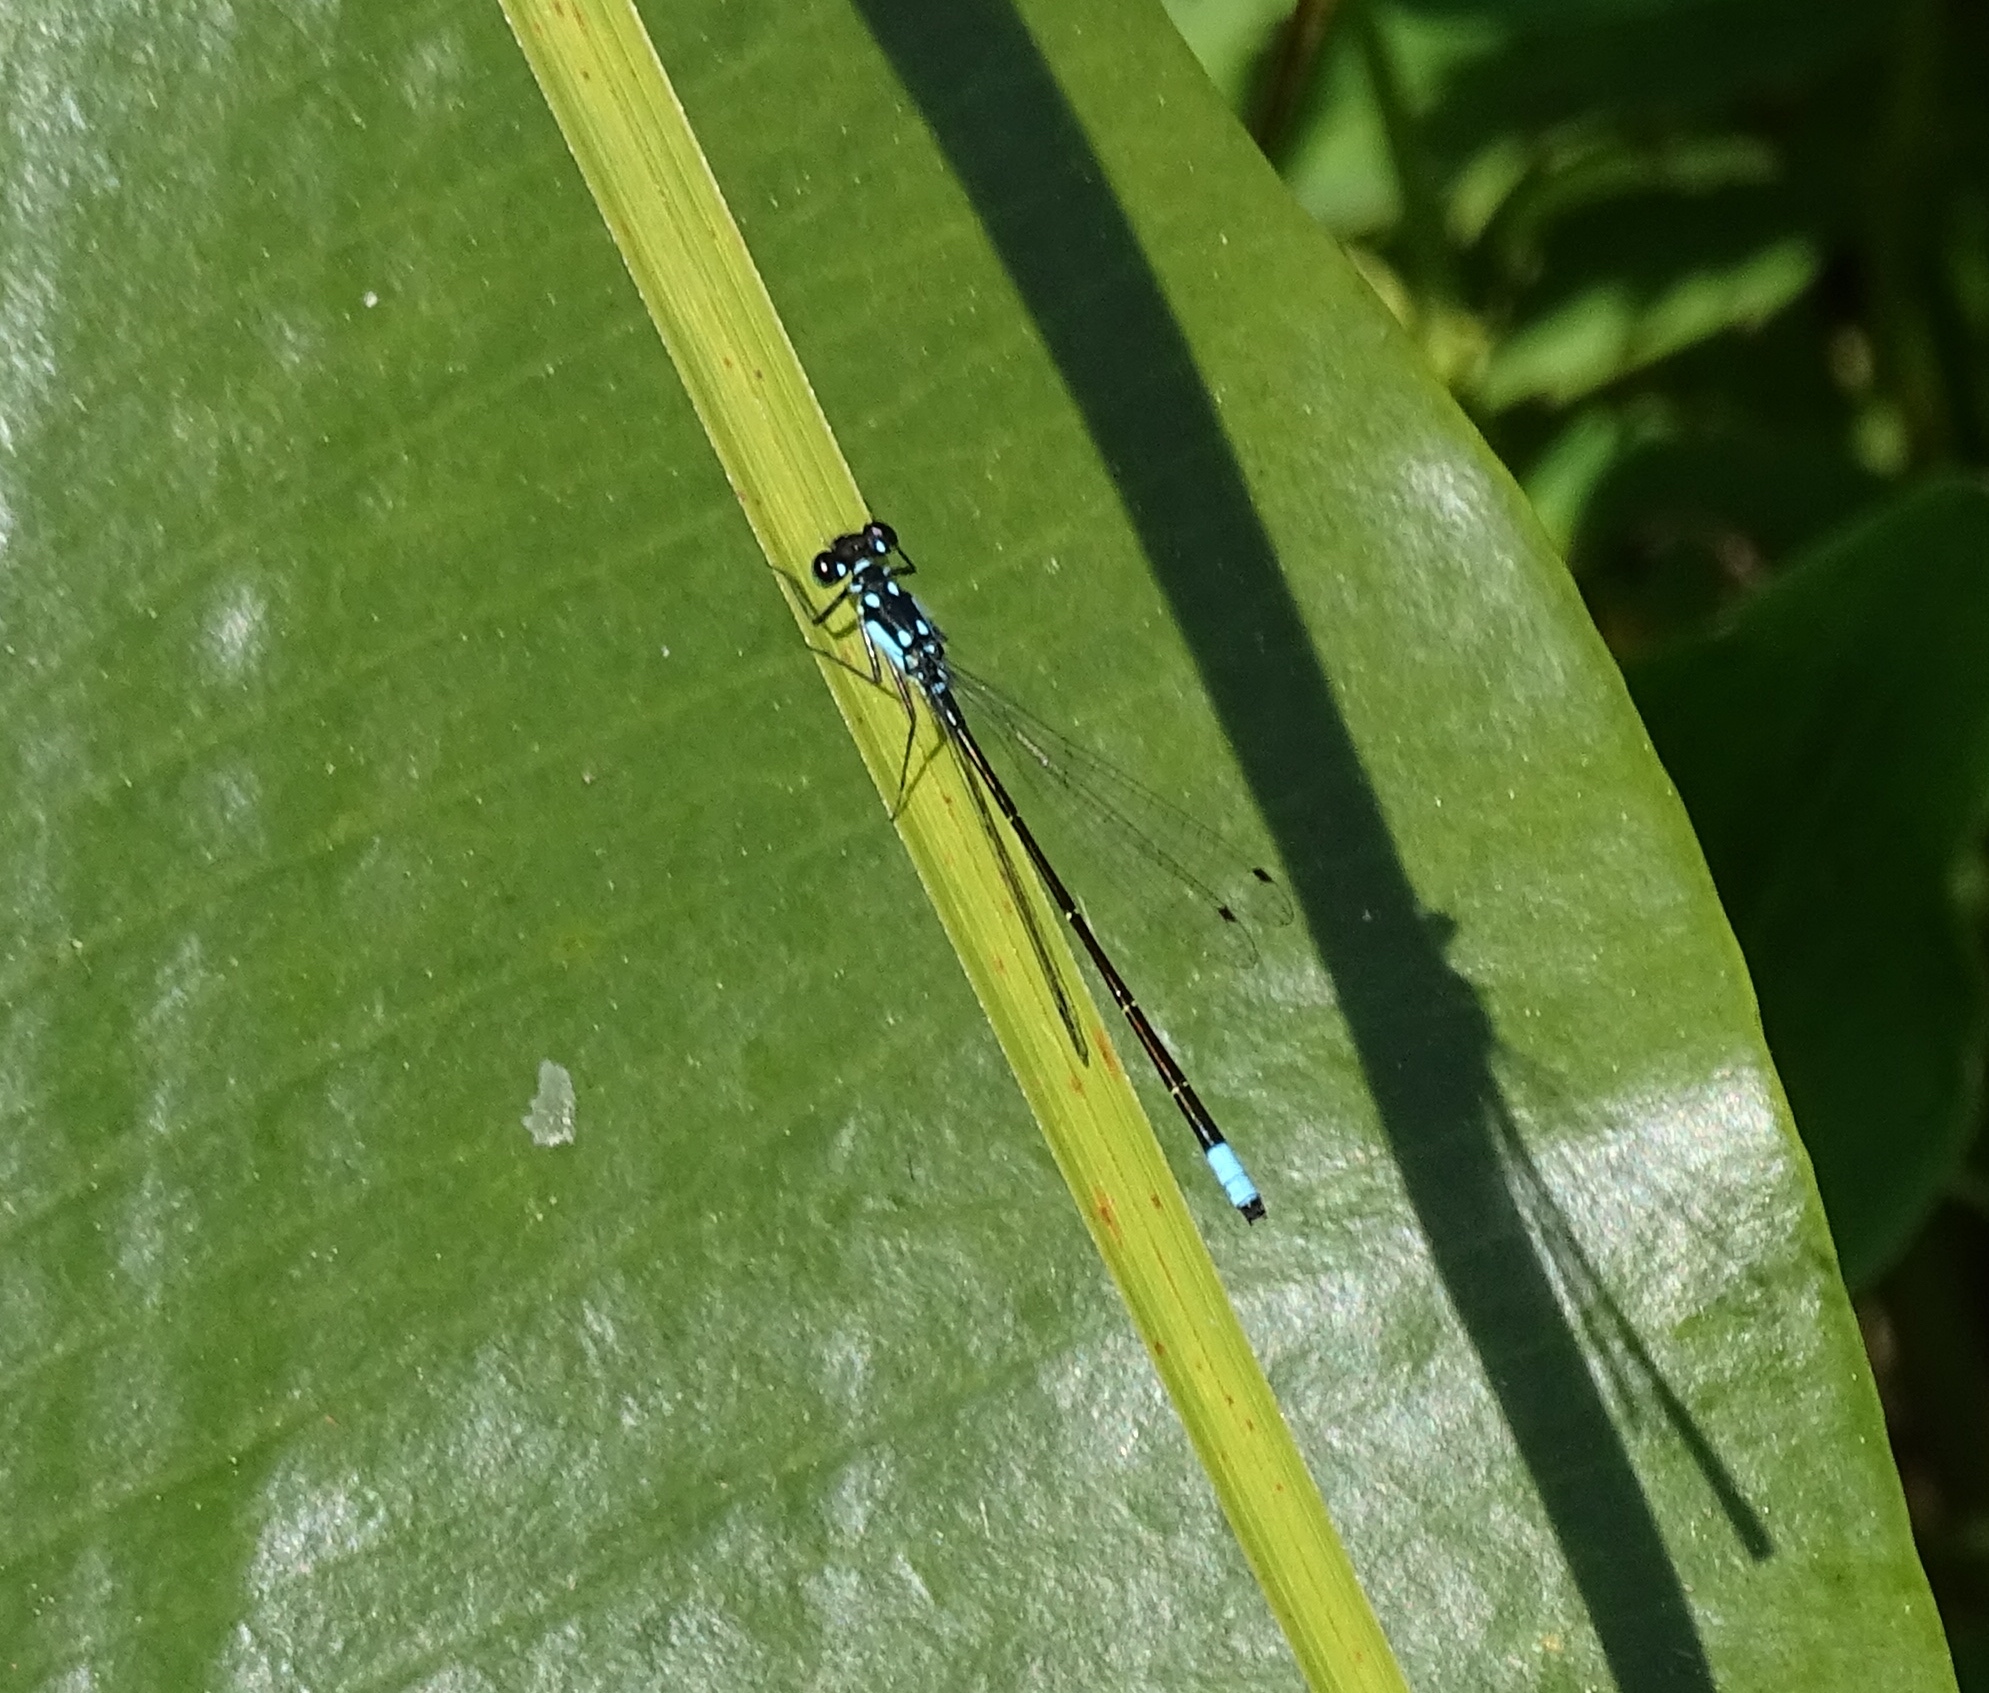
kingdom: Animalia
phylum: Arthropoda
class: Insecta
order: Odonata
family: Coenagrionidae
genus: Ischnura
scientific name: Ischnura cervula
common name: Pacific forktail
